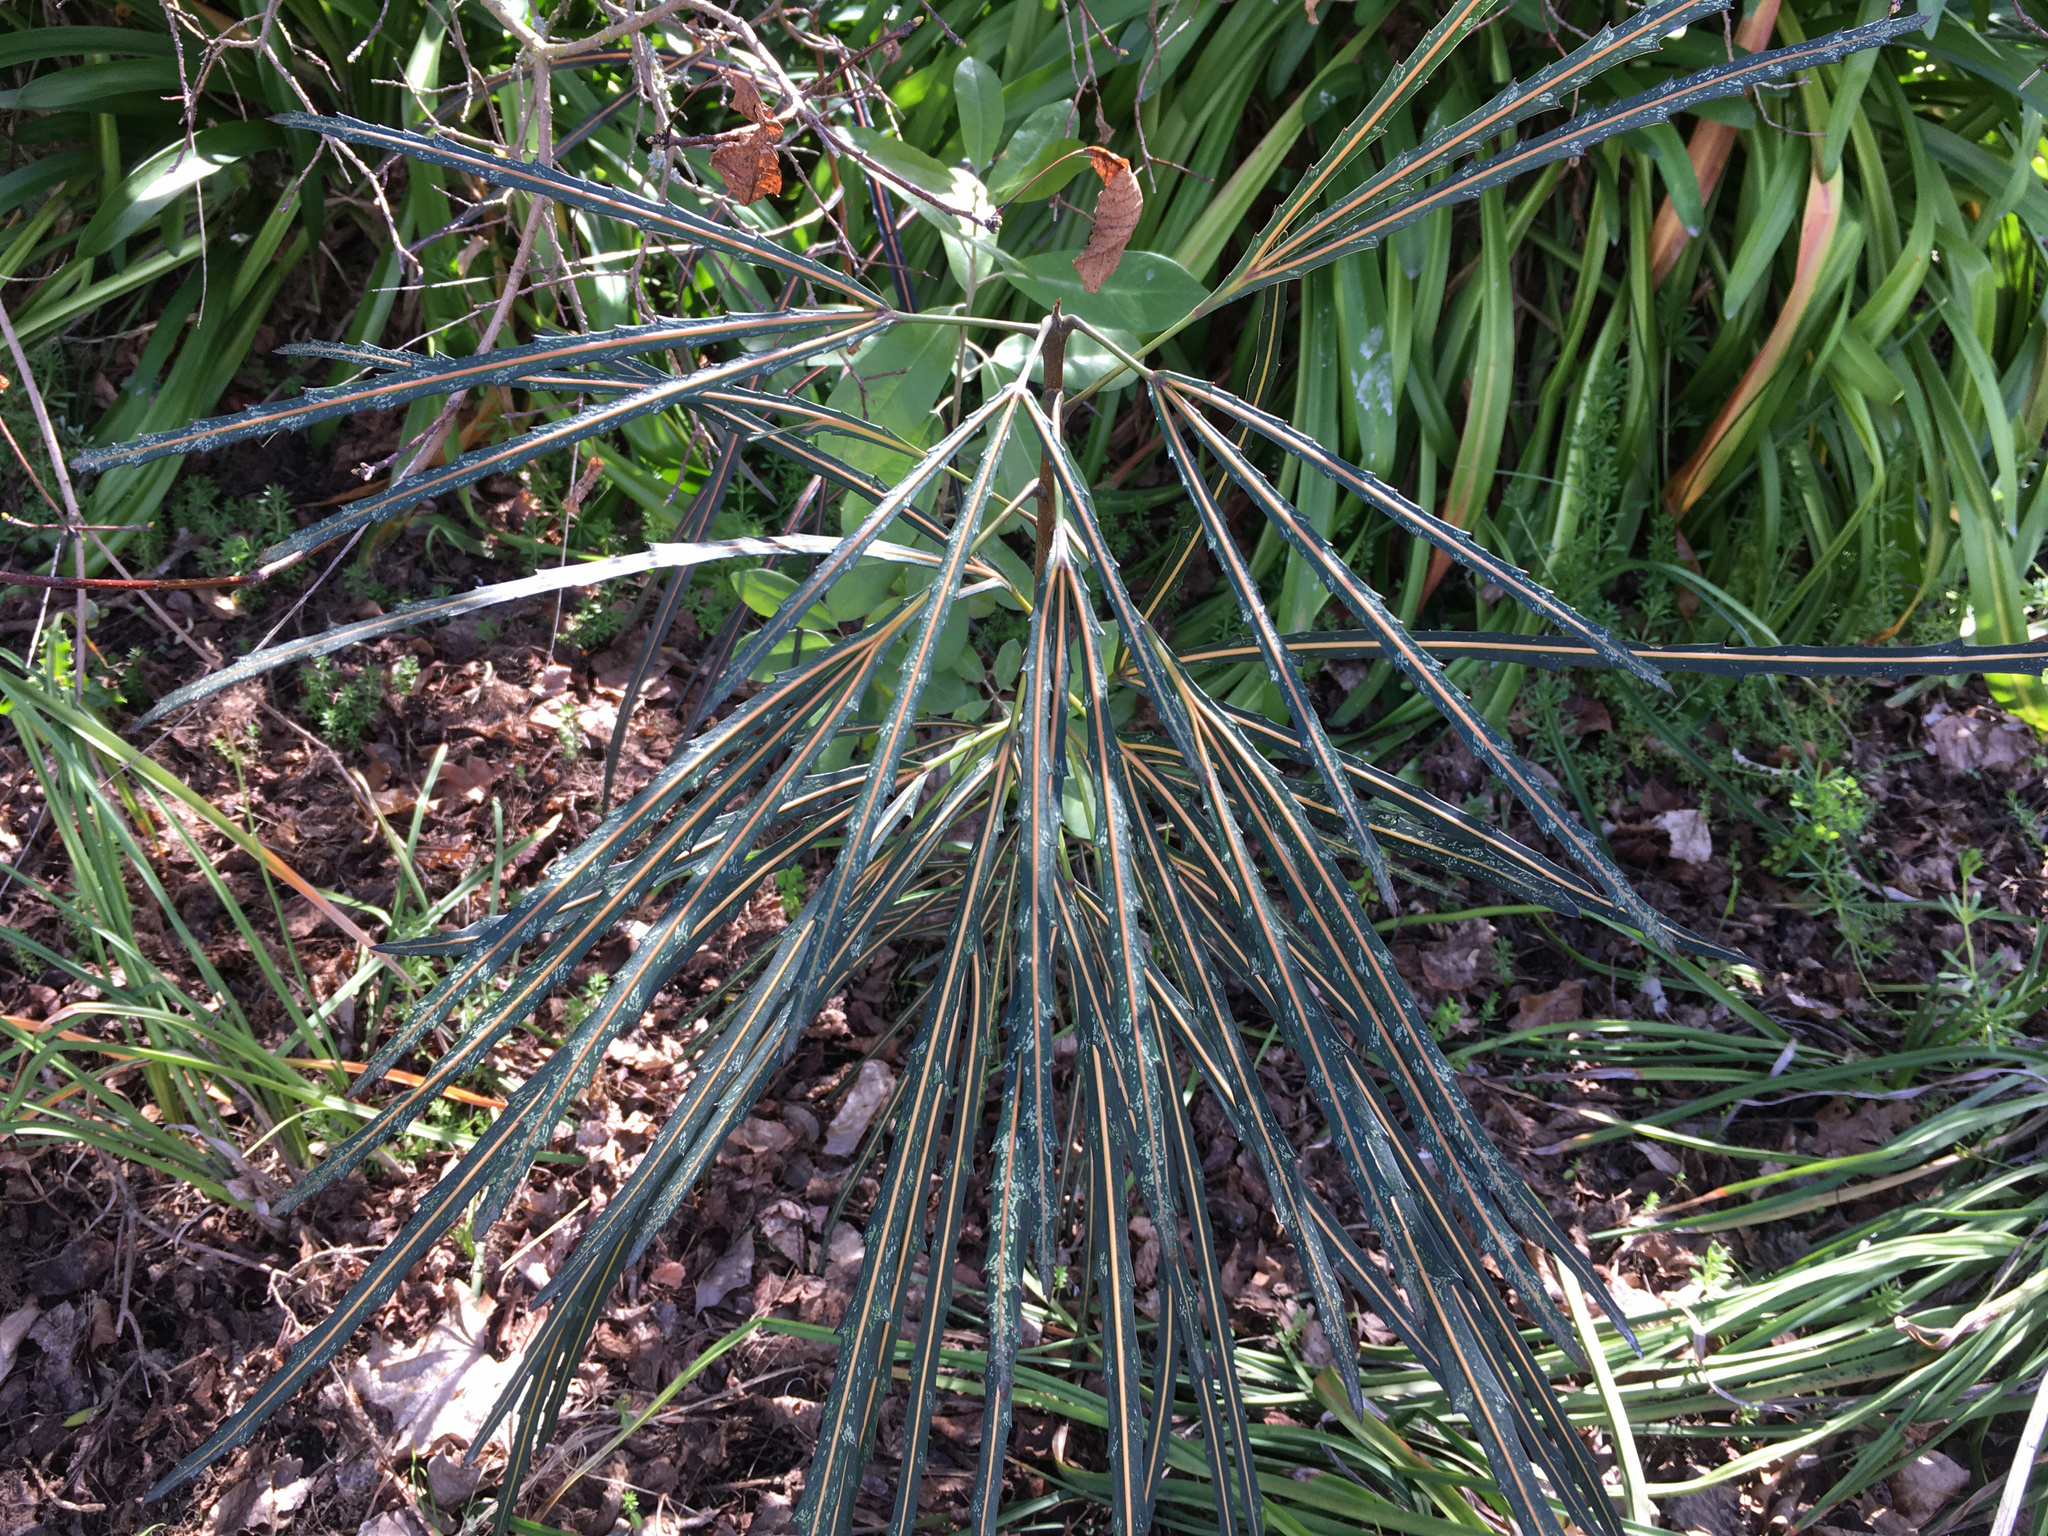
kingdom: Plantae
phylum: Tracheophyta
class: Magnoliopsida
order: Apiales
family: Araliaceae
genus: Pseudopanax
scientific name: Pseudopanax
